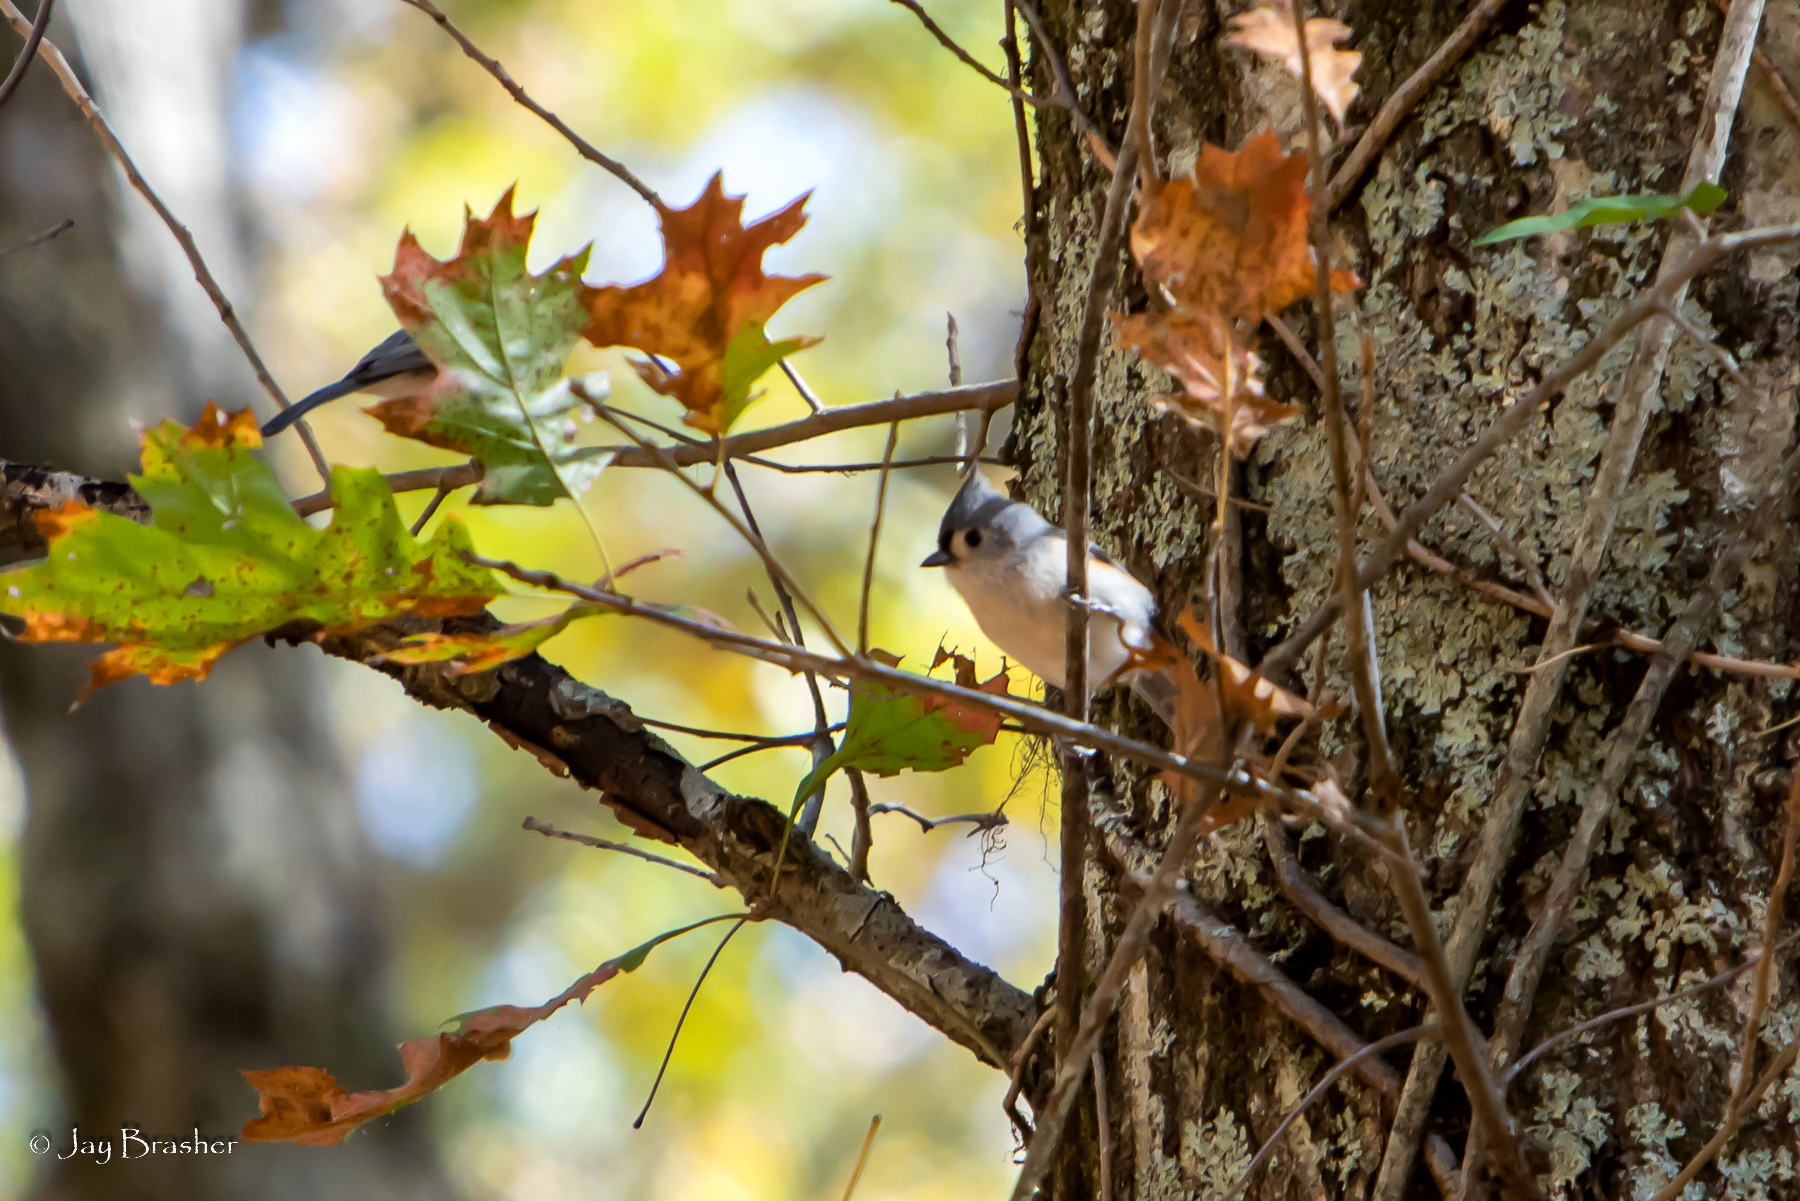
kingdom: Animalia
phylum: Chordata
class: Aves
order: Passeriformes
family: Paridae
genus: Baeolophus
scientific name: Baeolophus bicolor
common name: Tufted titmouse
